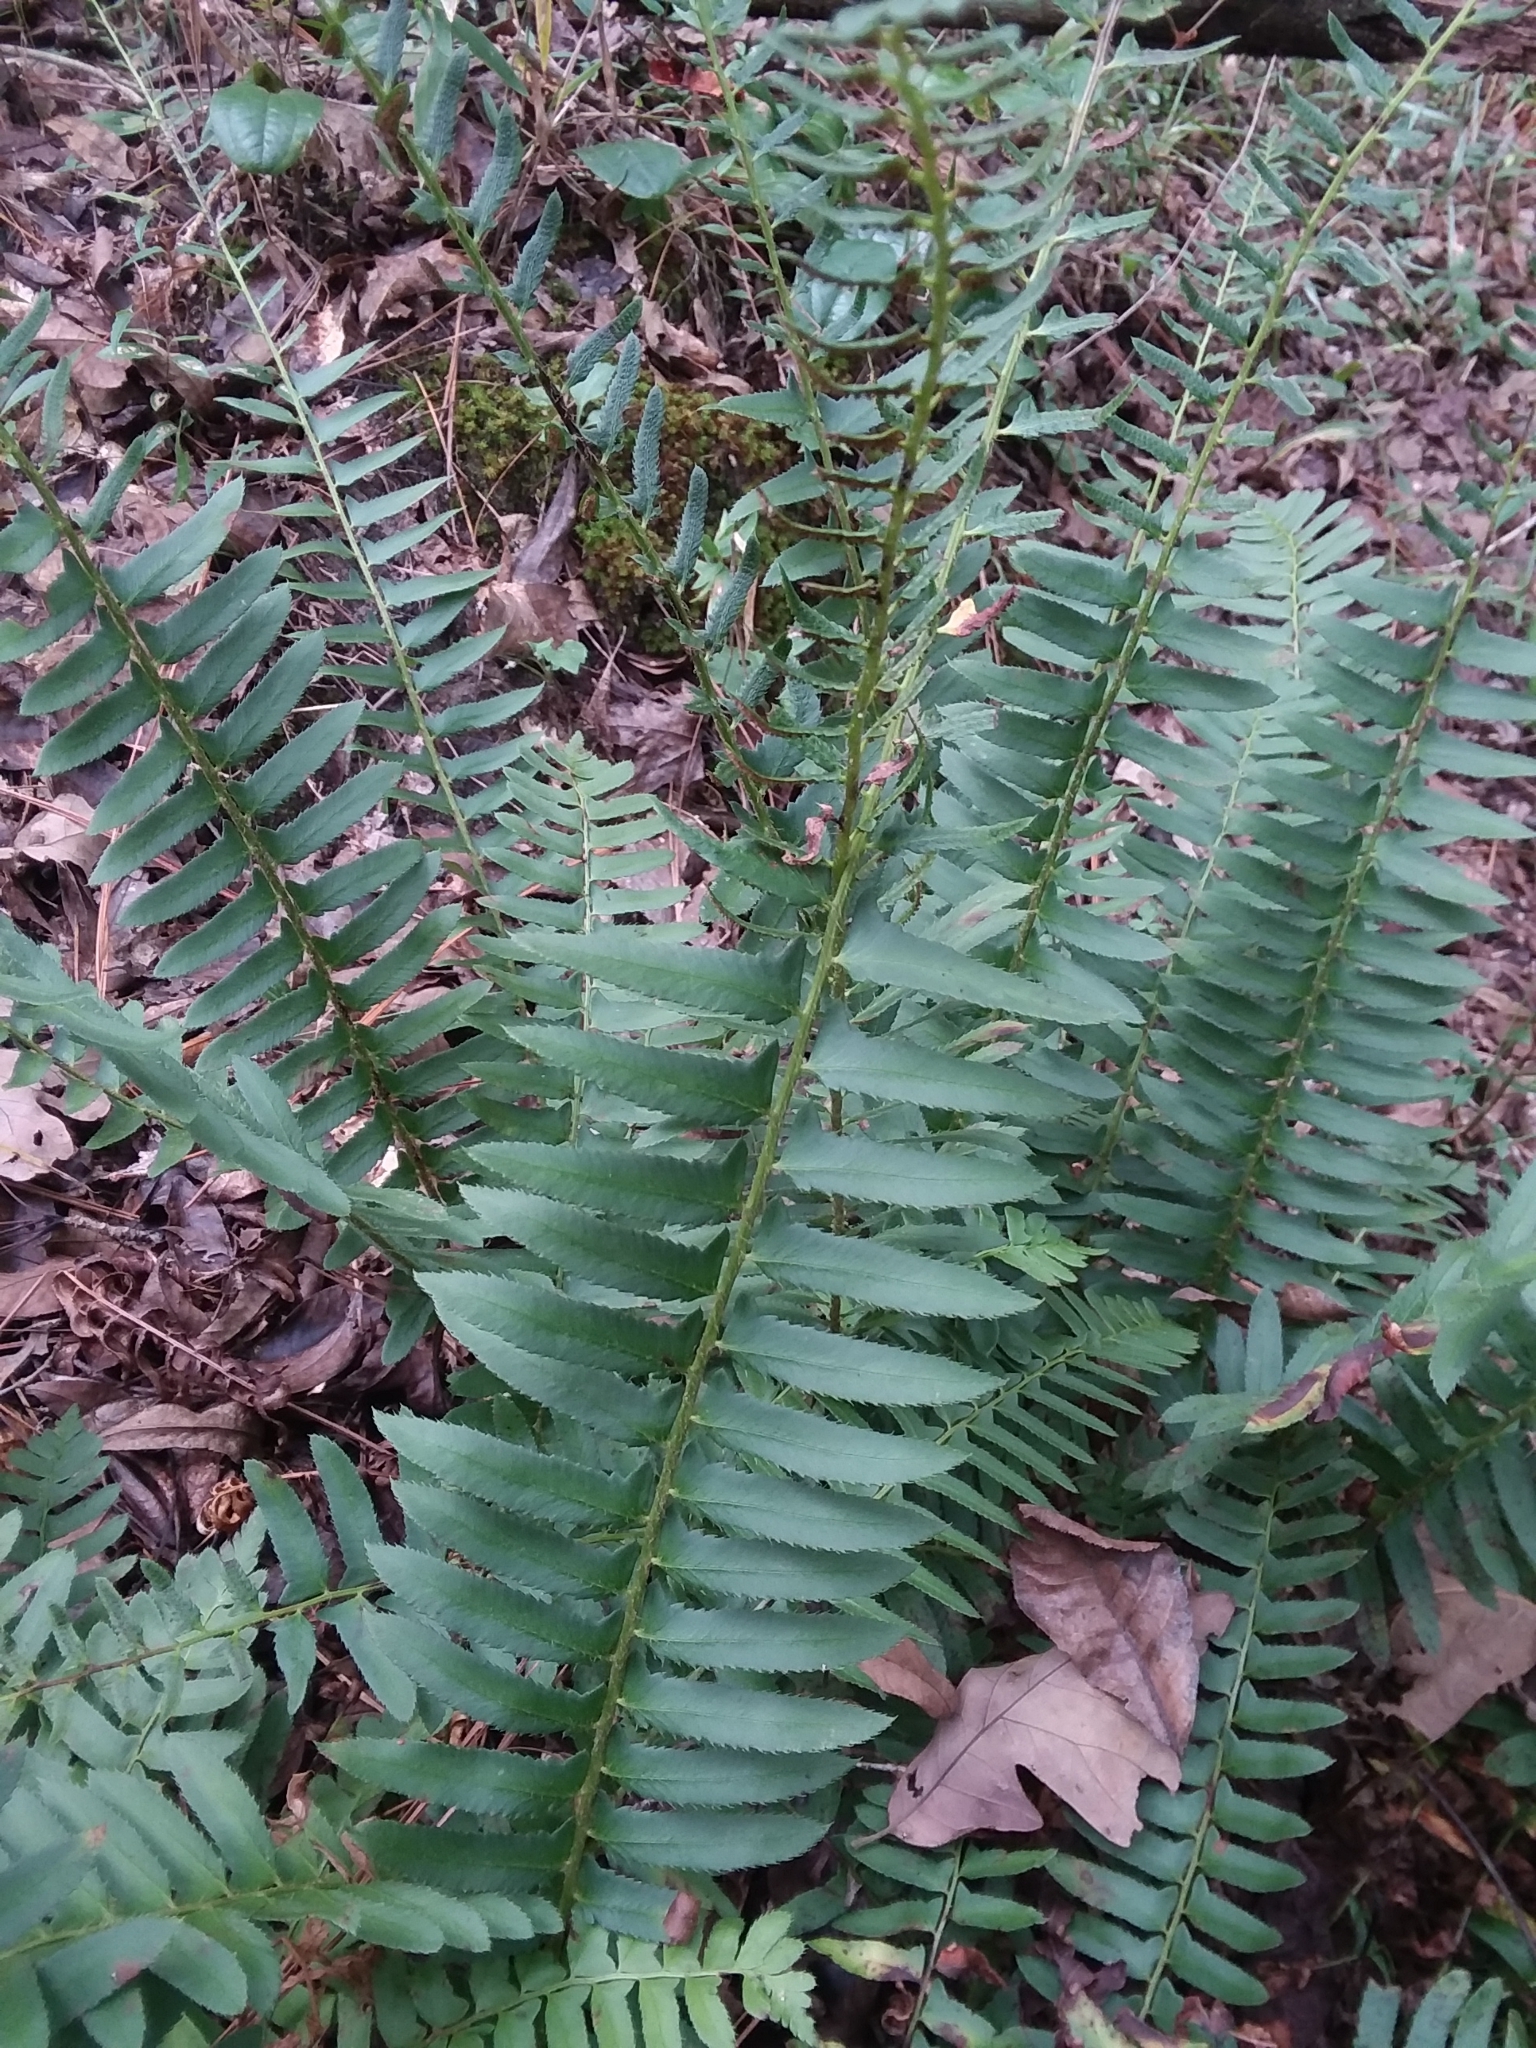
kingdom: Plantae
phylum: Tracheophyta
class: Polypodiopsida
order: Polypodiales
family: Dryopteridaceae
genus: Polystichum
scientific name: Polystichum acrostichoides
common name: Christmas fern
